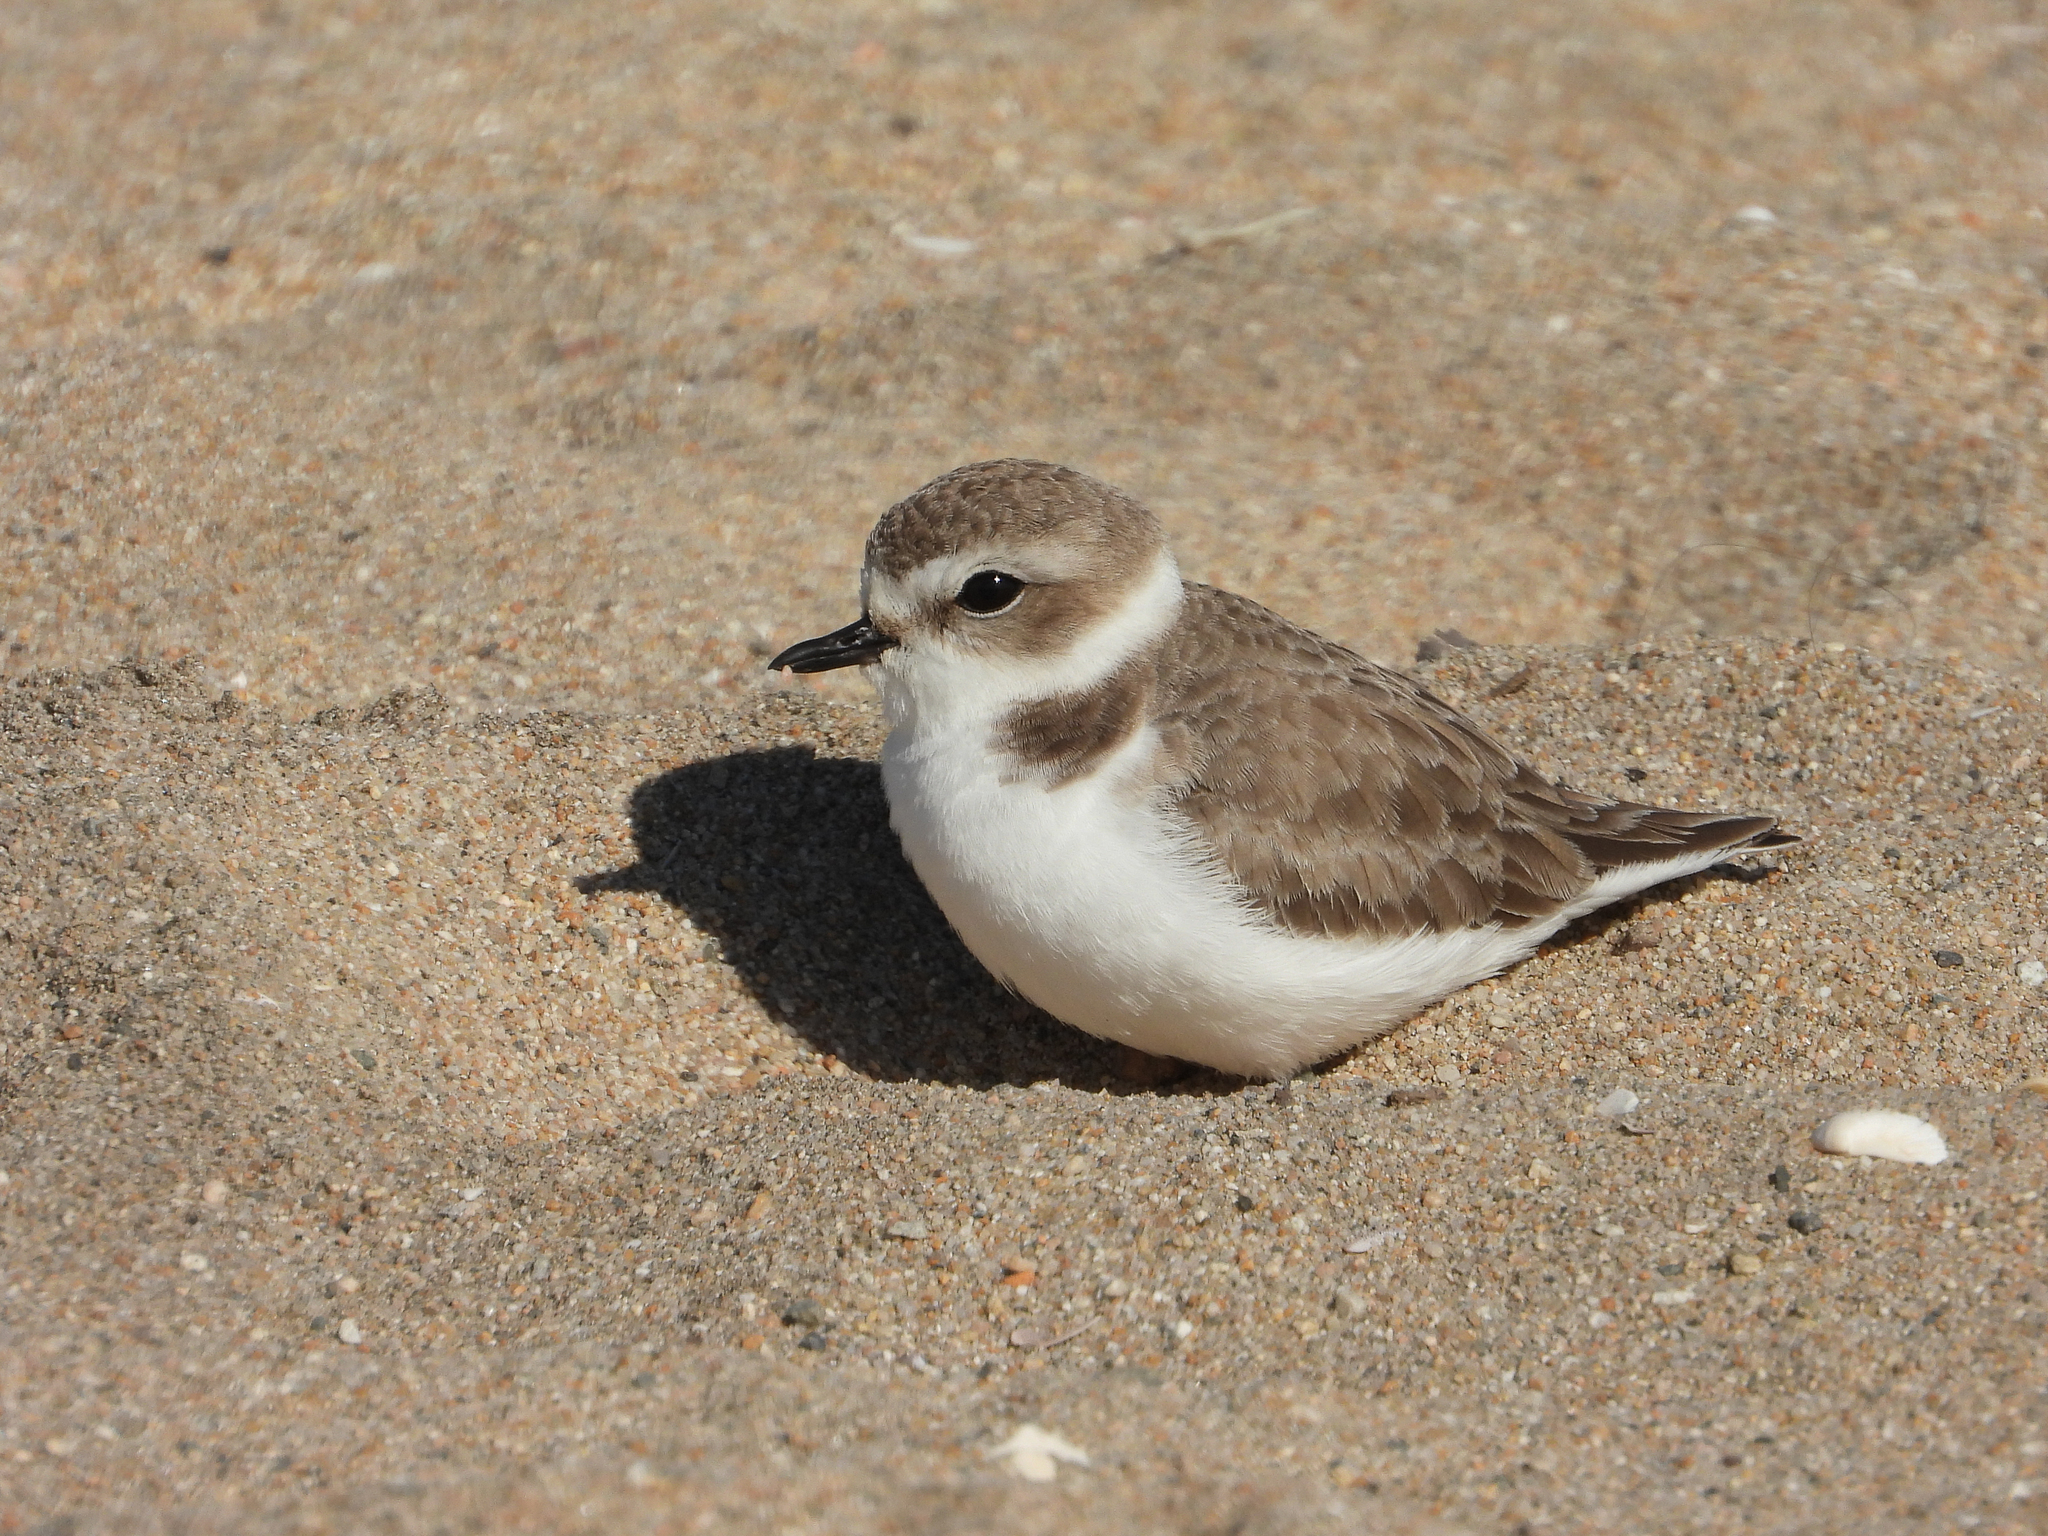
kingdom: Animalia
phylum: Chordata
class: Aves
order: Charadriiformes
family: Charadriidae
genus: Anarhynchus
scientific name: Anarhynchus
